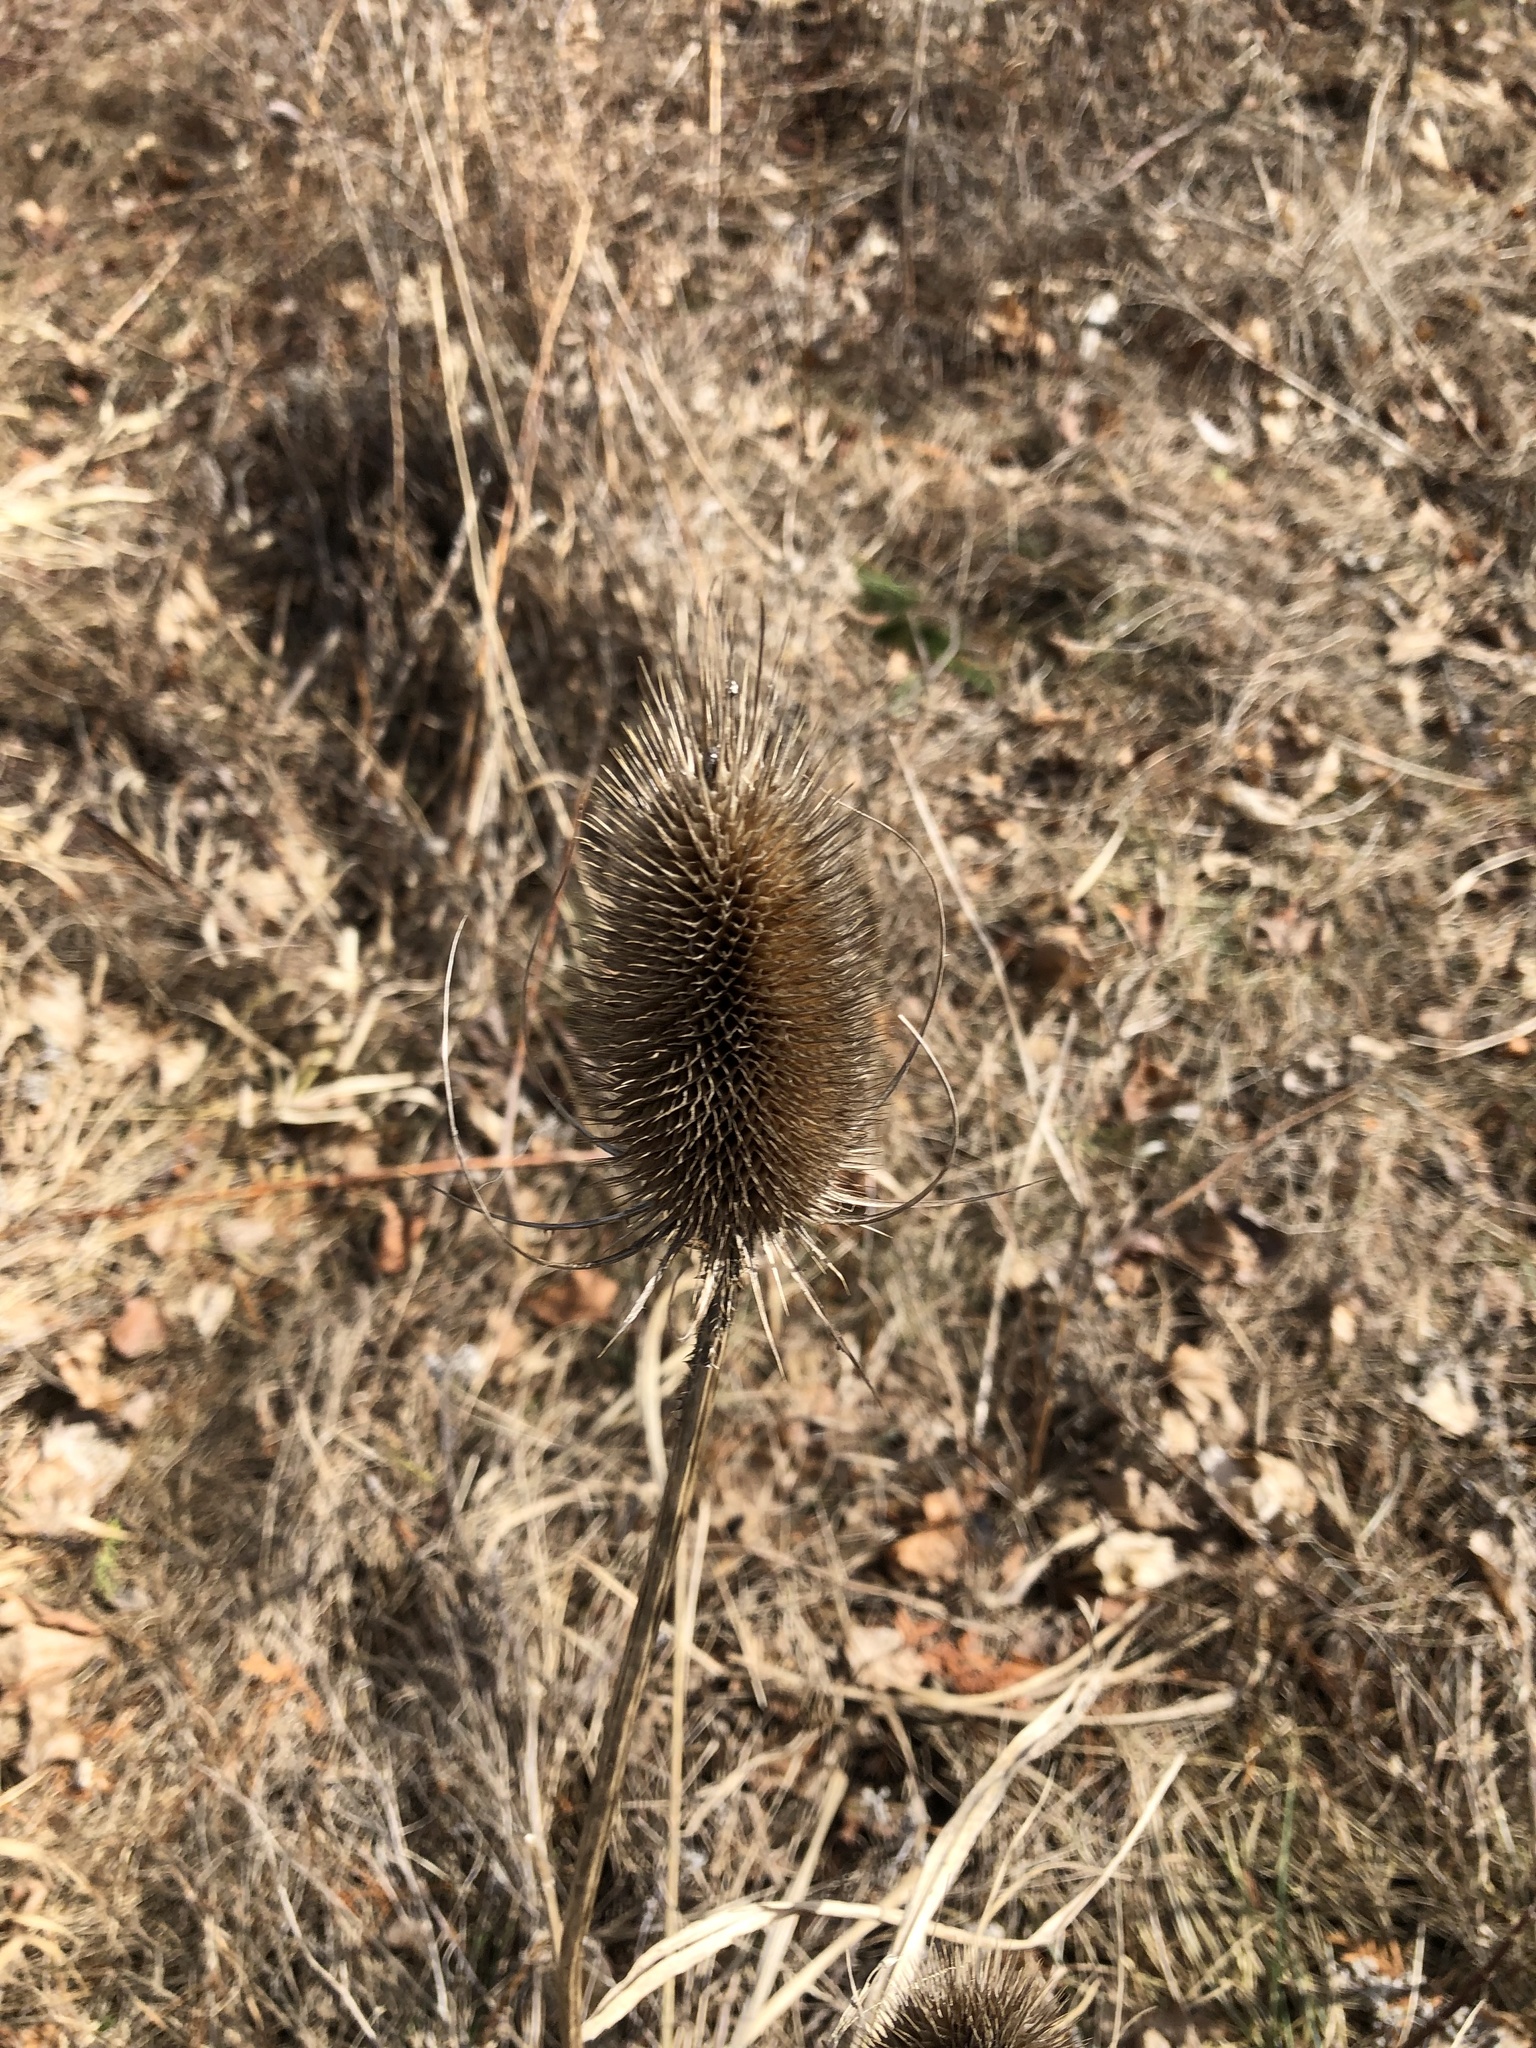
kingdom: Plantae
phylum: Tracheophyta
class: Magnoliopsida
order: Dipsacales
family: Caprifoliaceae
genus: Dipsacus
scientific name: Dipsacus fullonum
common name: Teasel
